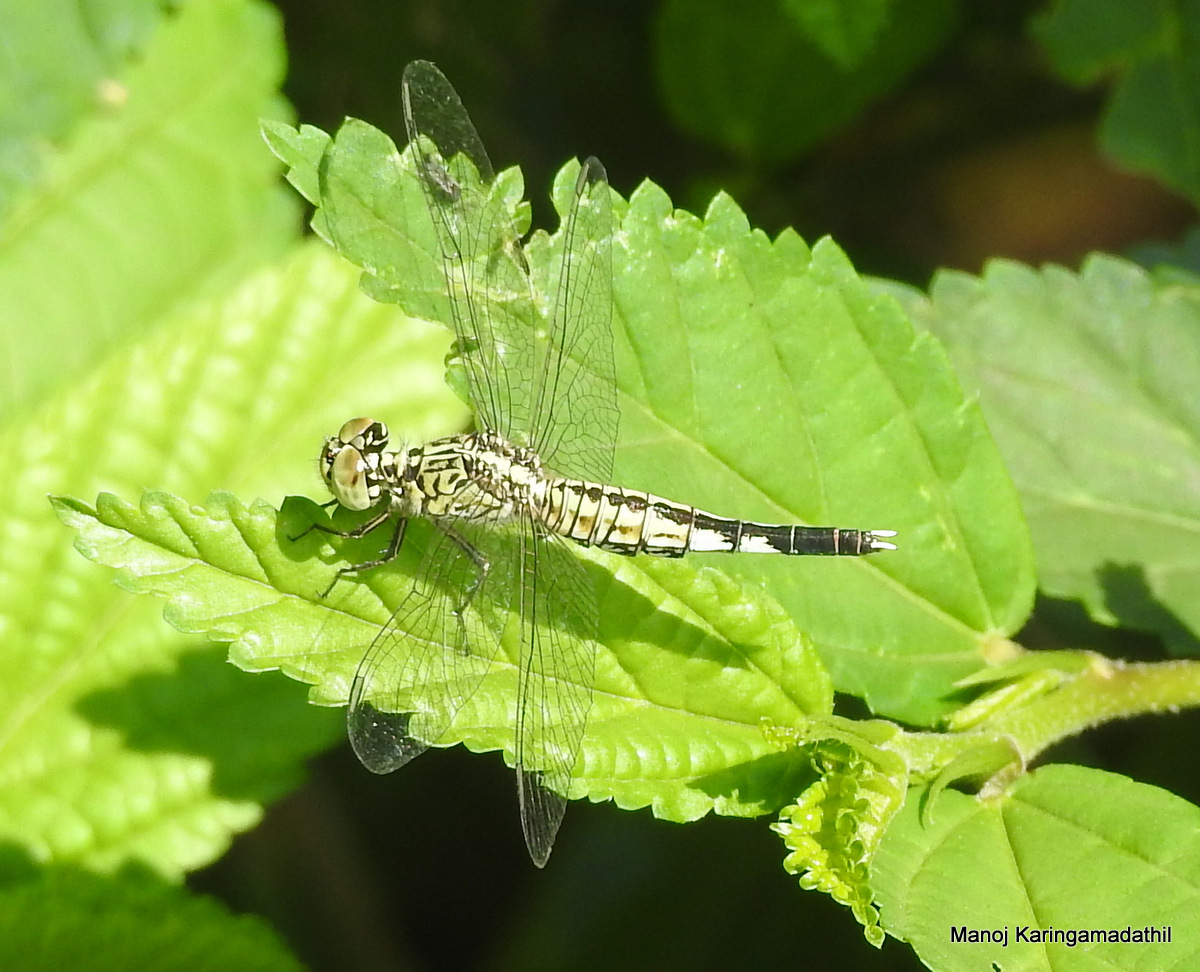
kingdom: Animalia
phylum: Arthropoda
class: Insecta
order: Odonata
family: Libellulidae
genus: Acisoma
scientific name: Acisoma panorpoides
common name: Asian pintail
